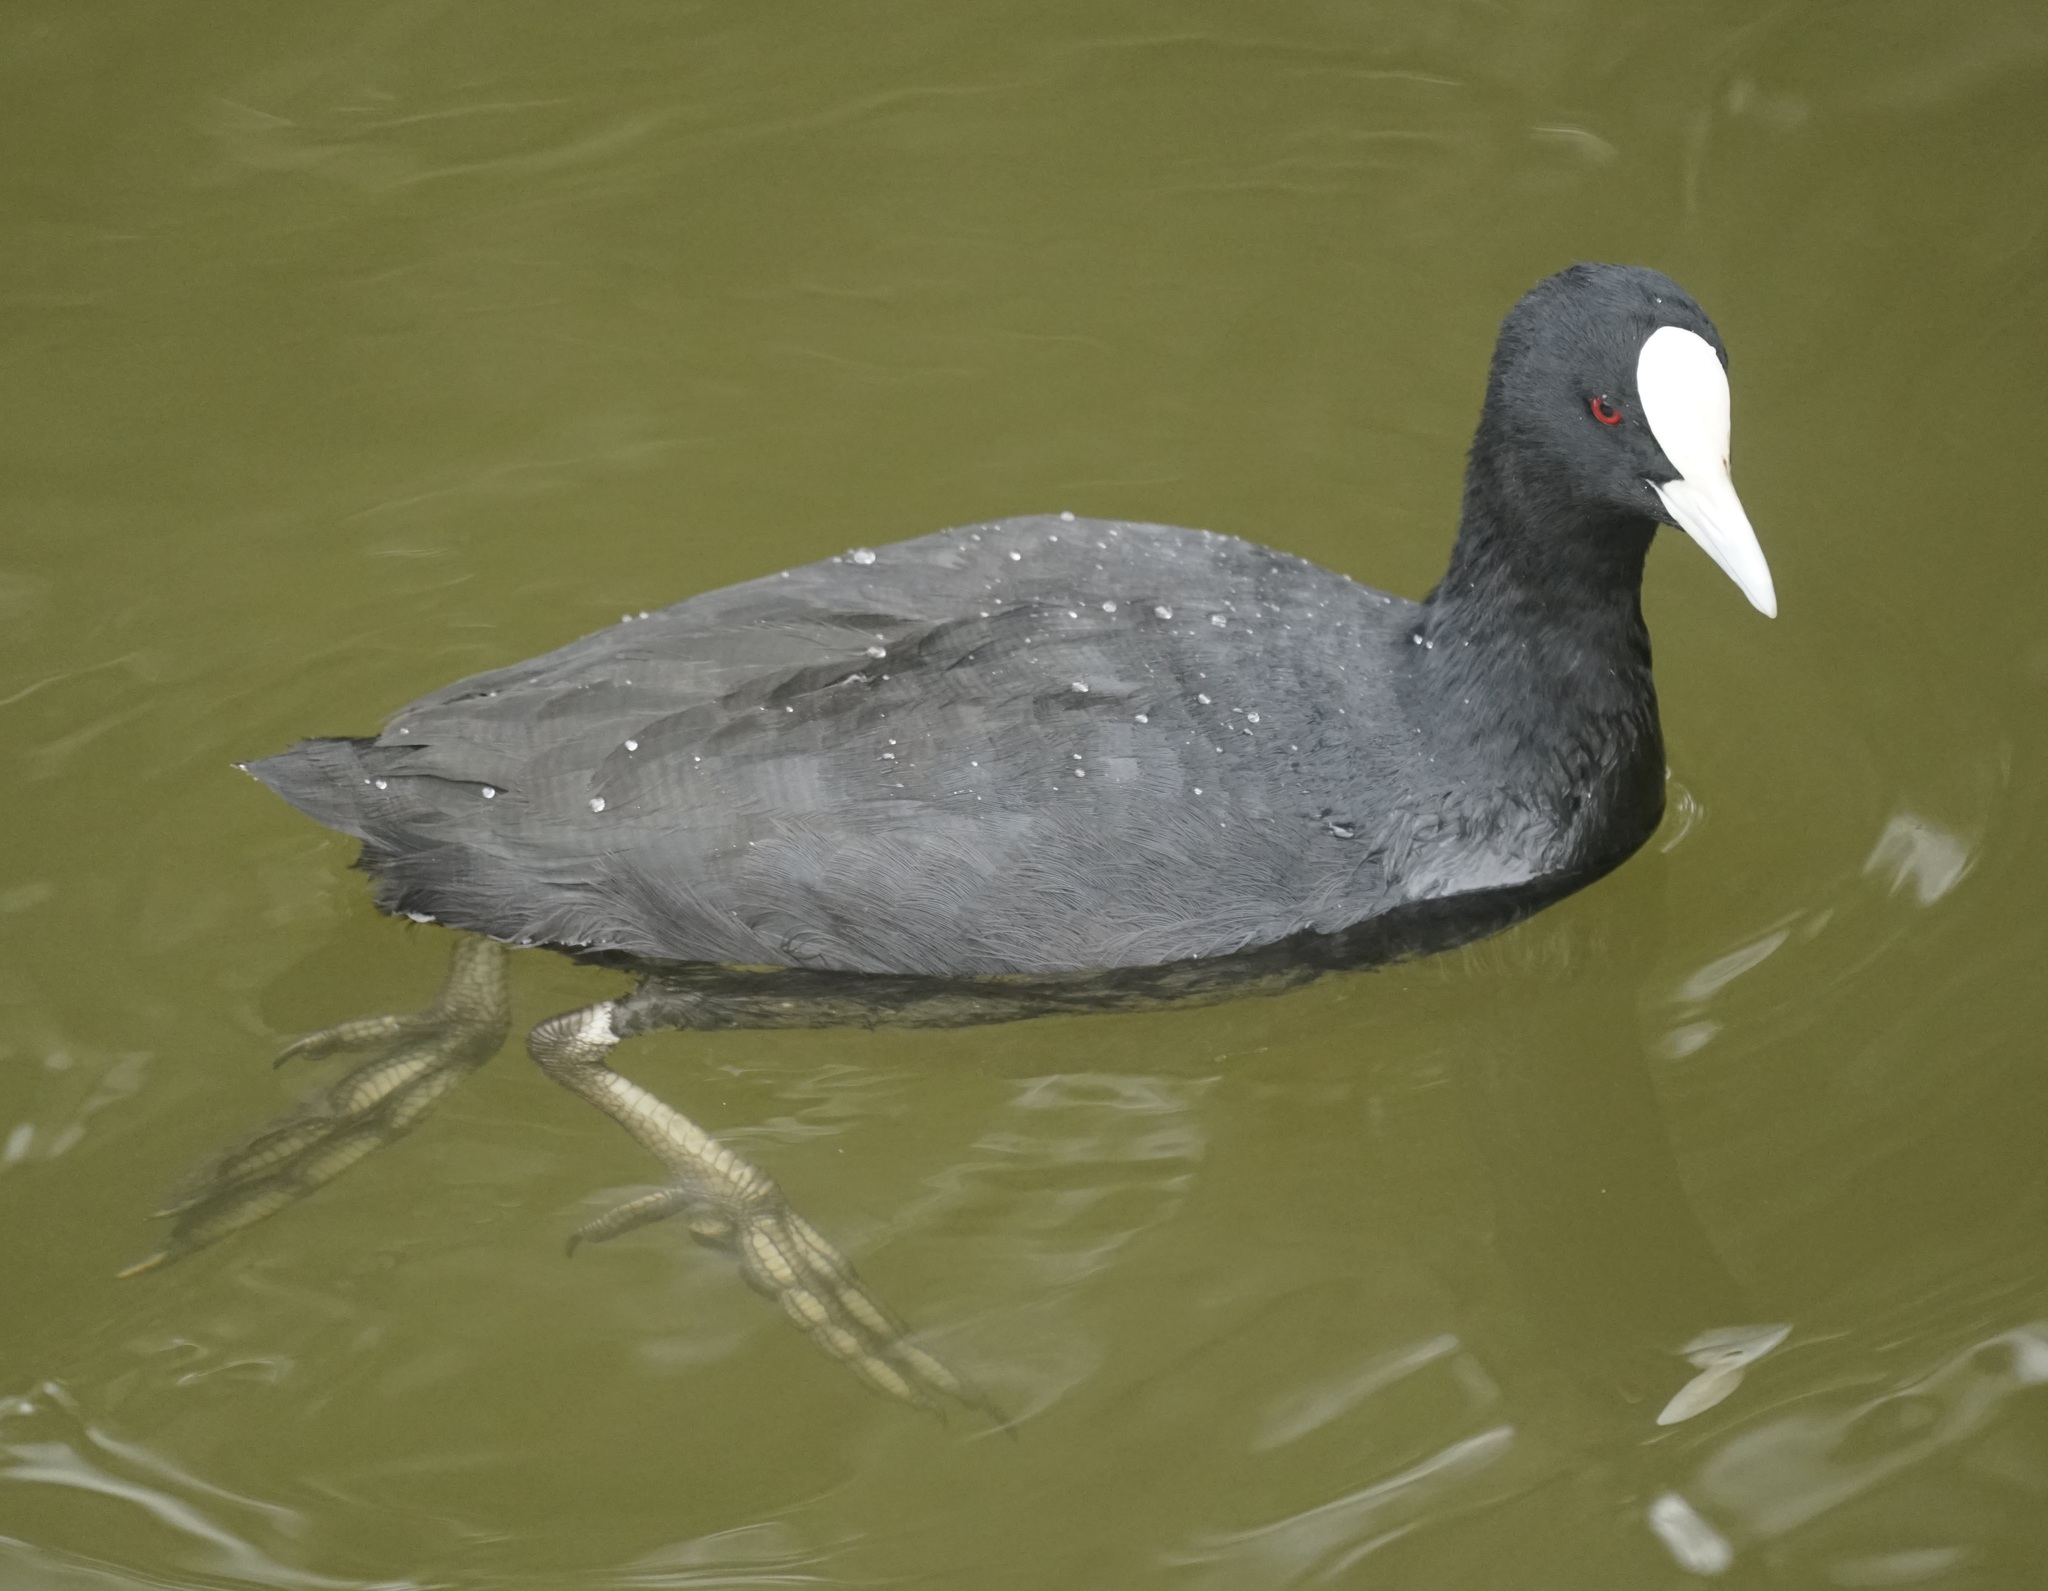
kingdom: Animalia
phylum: Chordata
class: Aves
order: Gruiformes
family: Rallidae
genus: Fulica
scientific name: Fulica atra
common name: Eurasian coot
